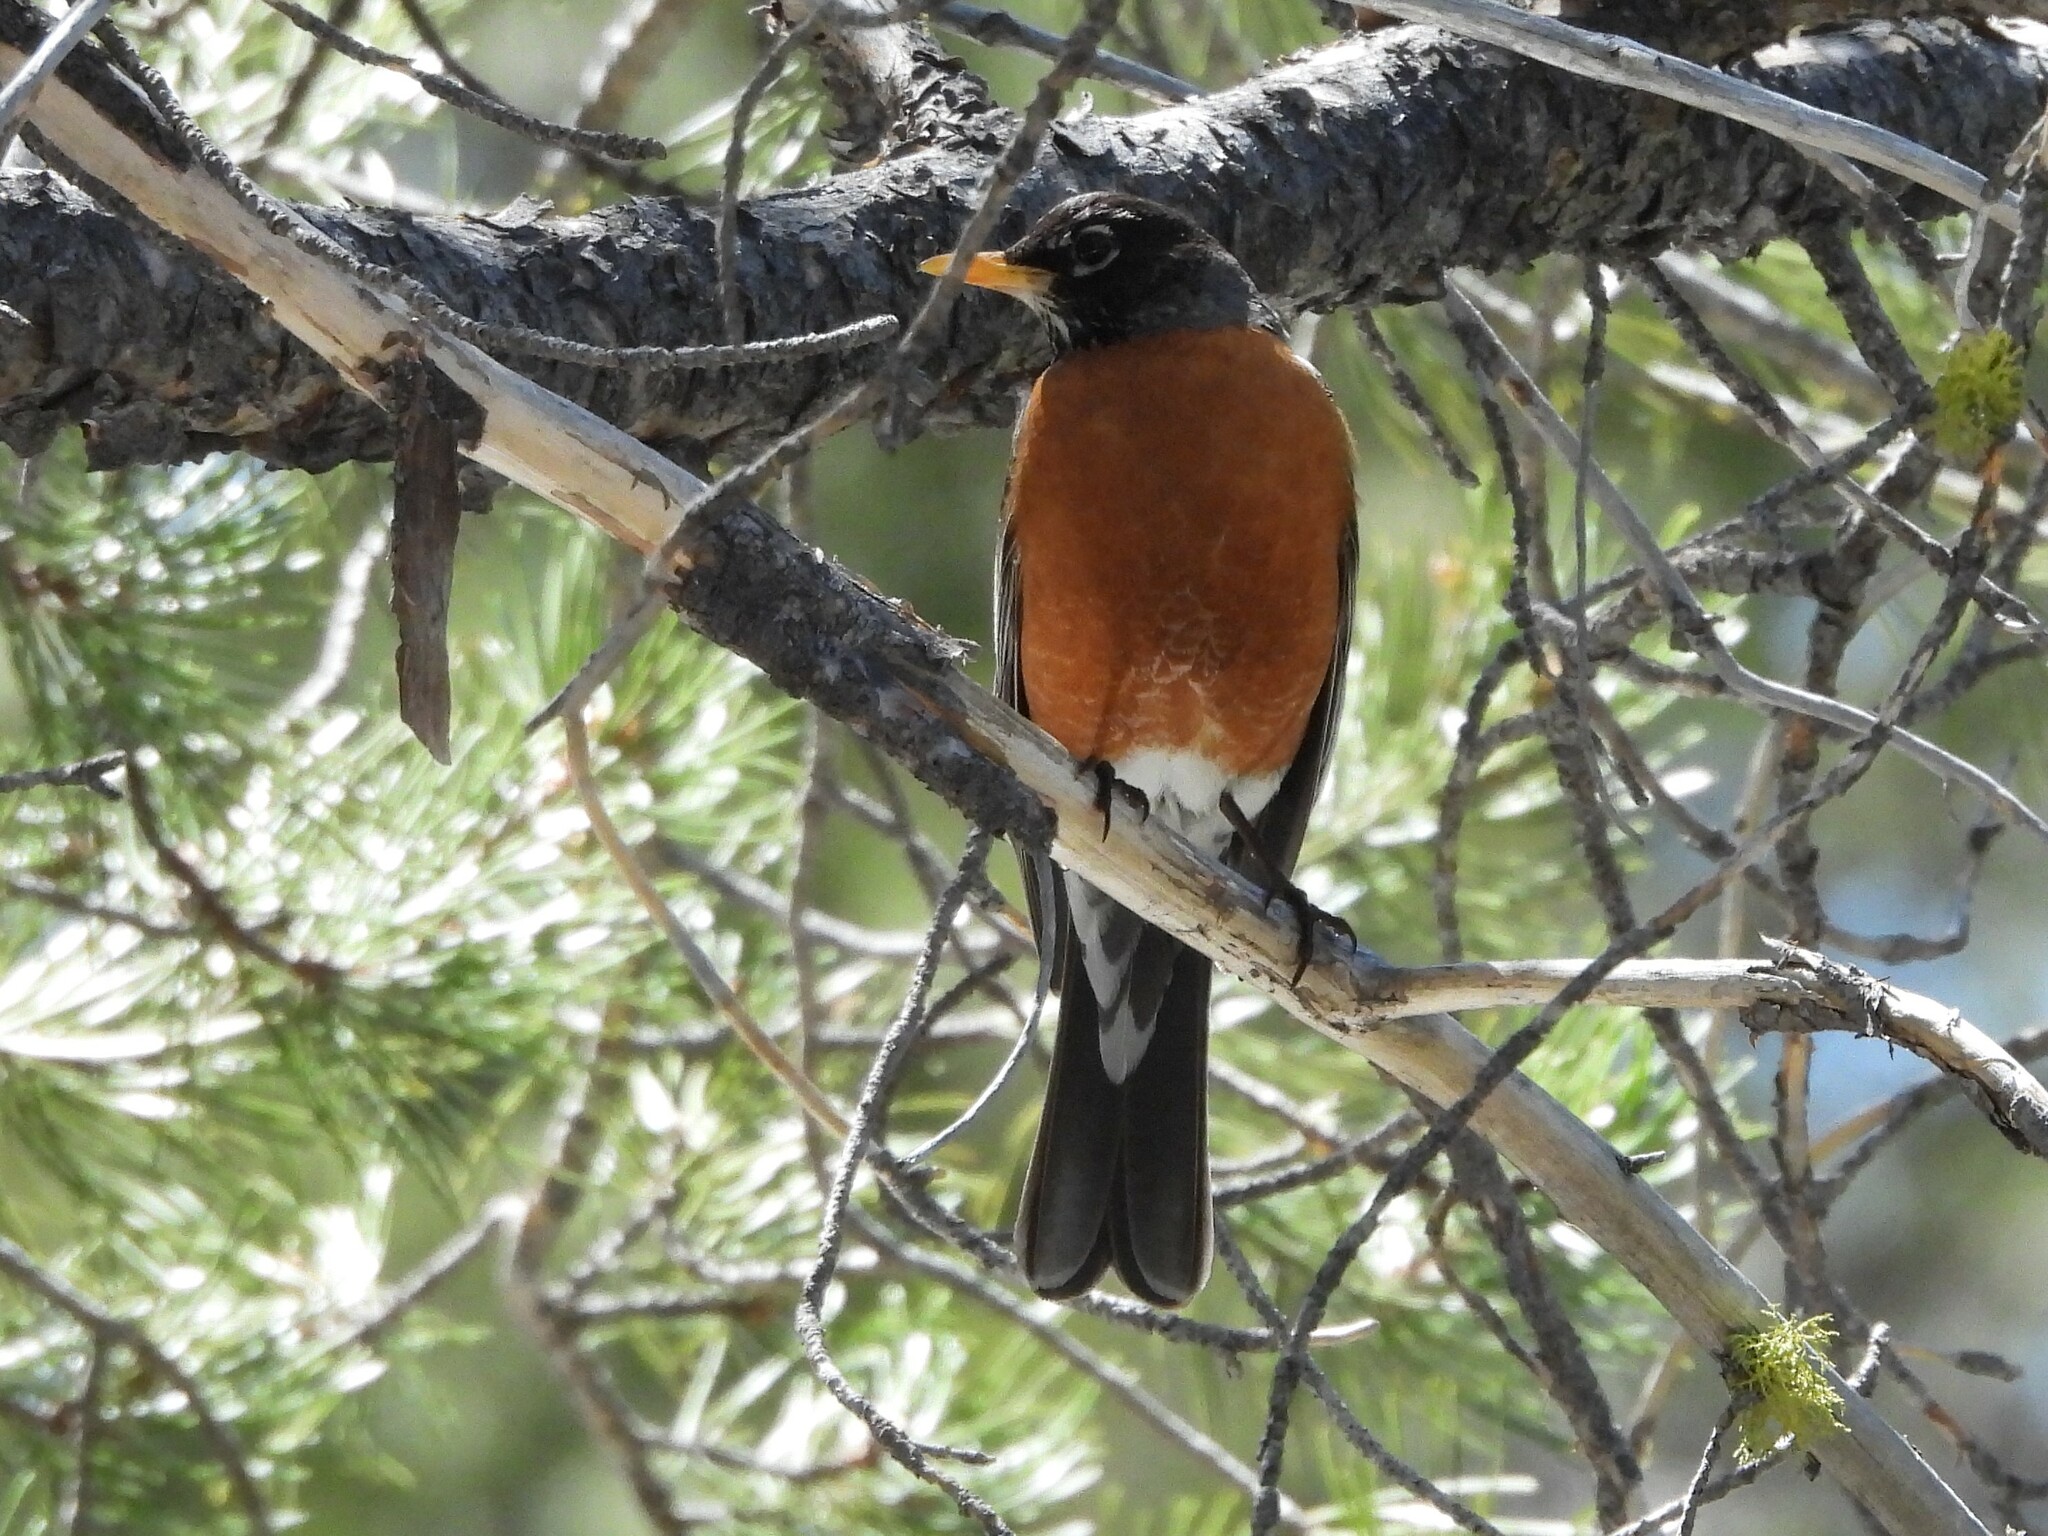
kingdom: Animalia
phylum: Chordata
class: Aves
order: Passeriformes
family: Turdidae
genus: Turdus
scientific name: Turdus migratorius
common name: American robin
